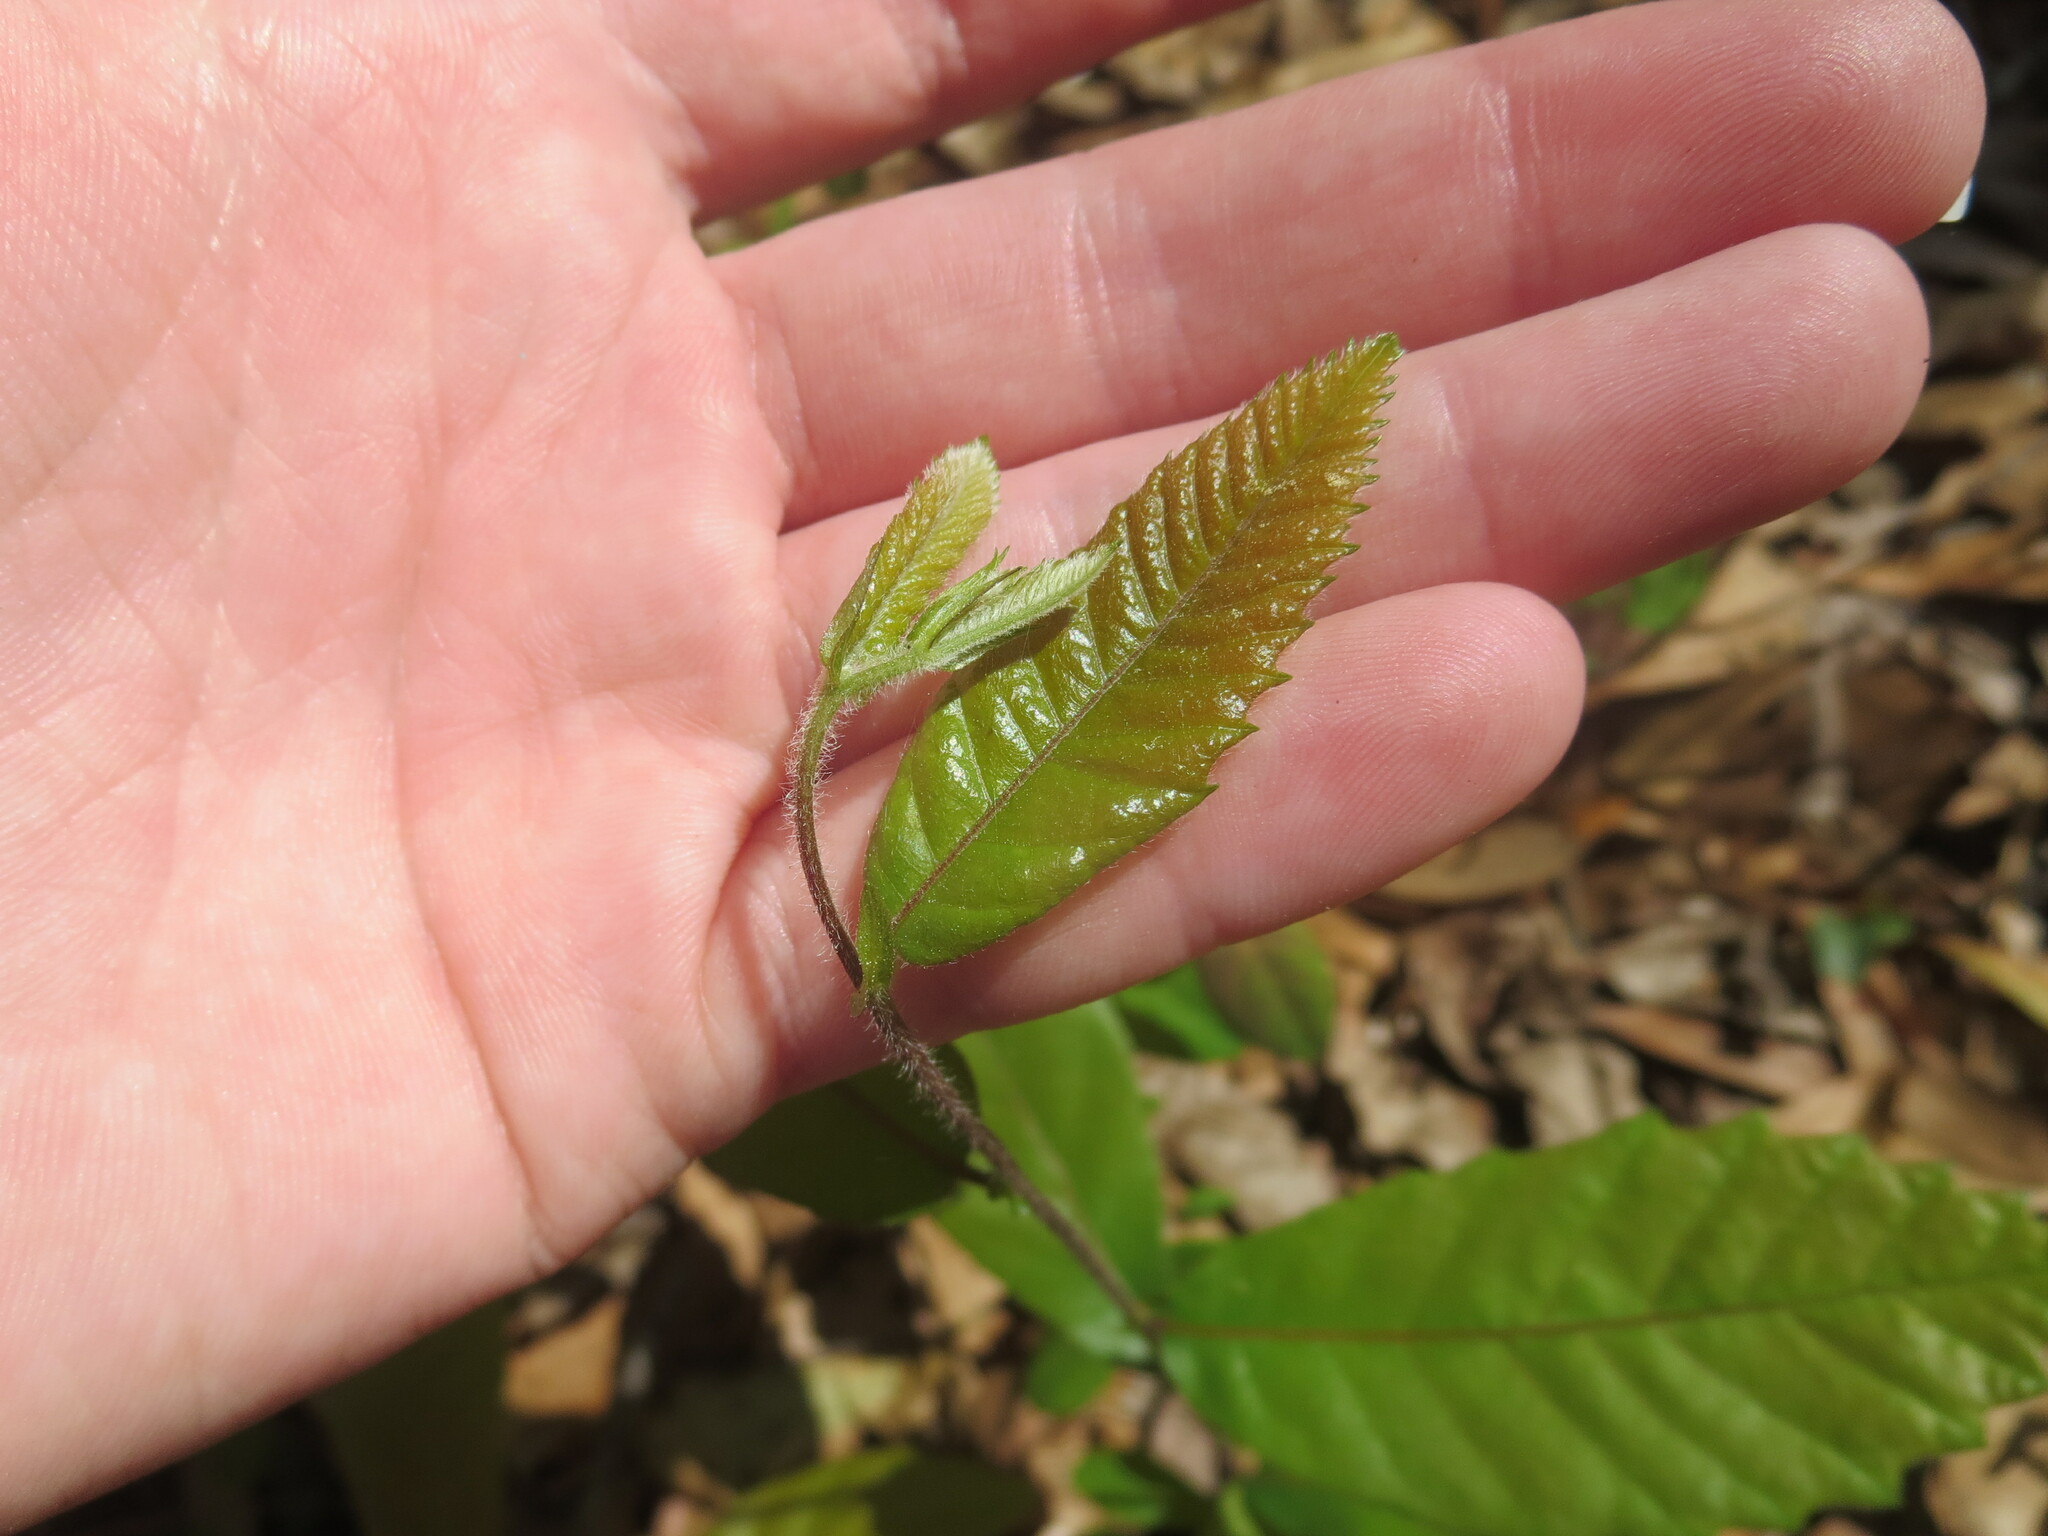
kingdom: Plantae
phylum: Tracheophyta
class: Magnoliopsida
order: Fagales
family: Fagaceae
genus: Castanea
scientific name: Castanea pumila
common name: Chinkapin
